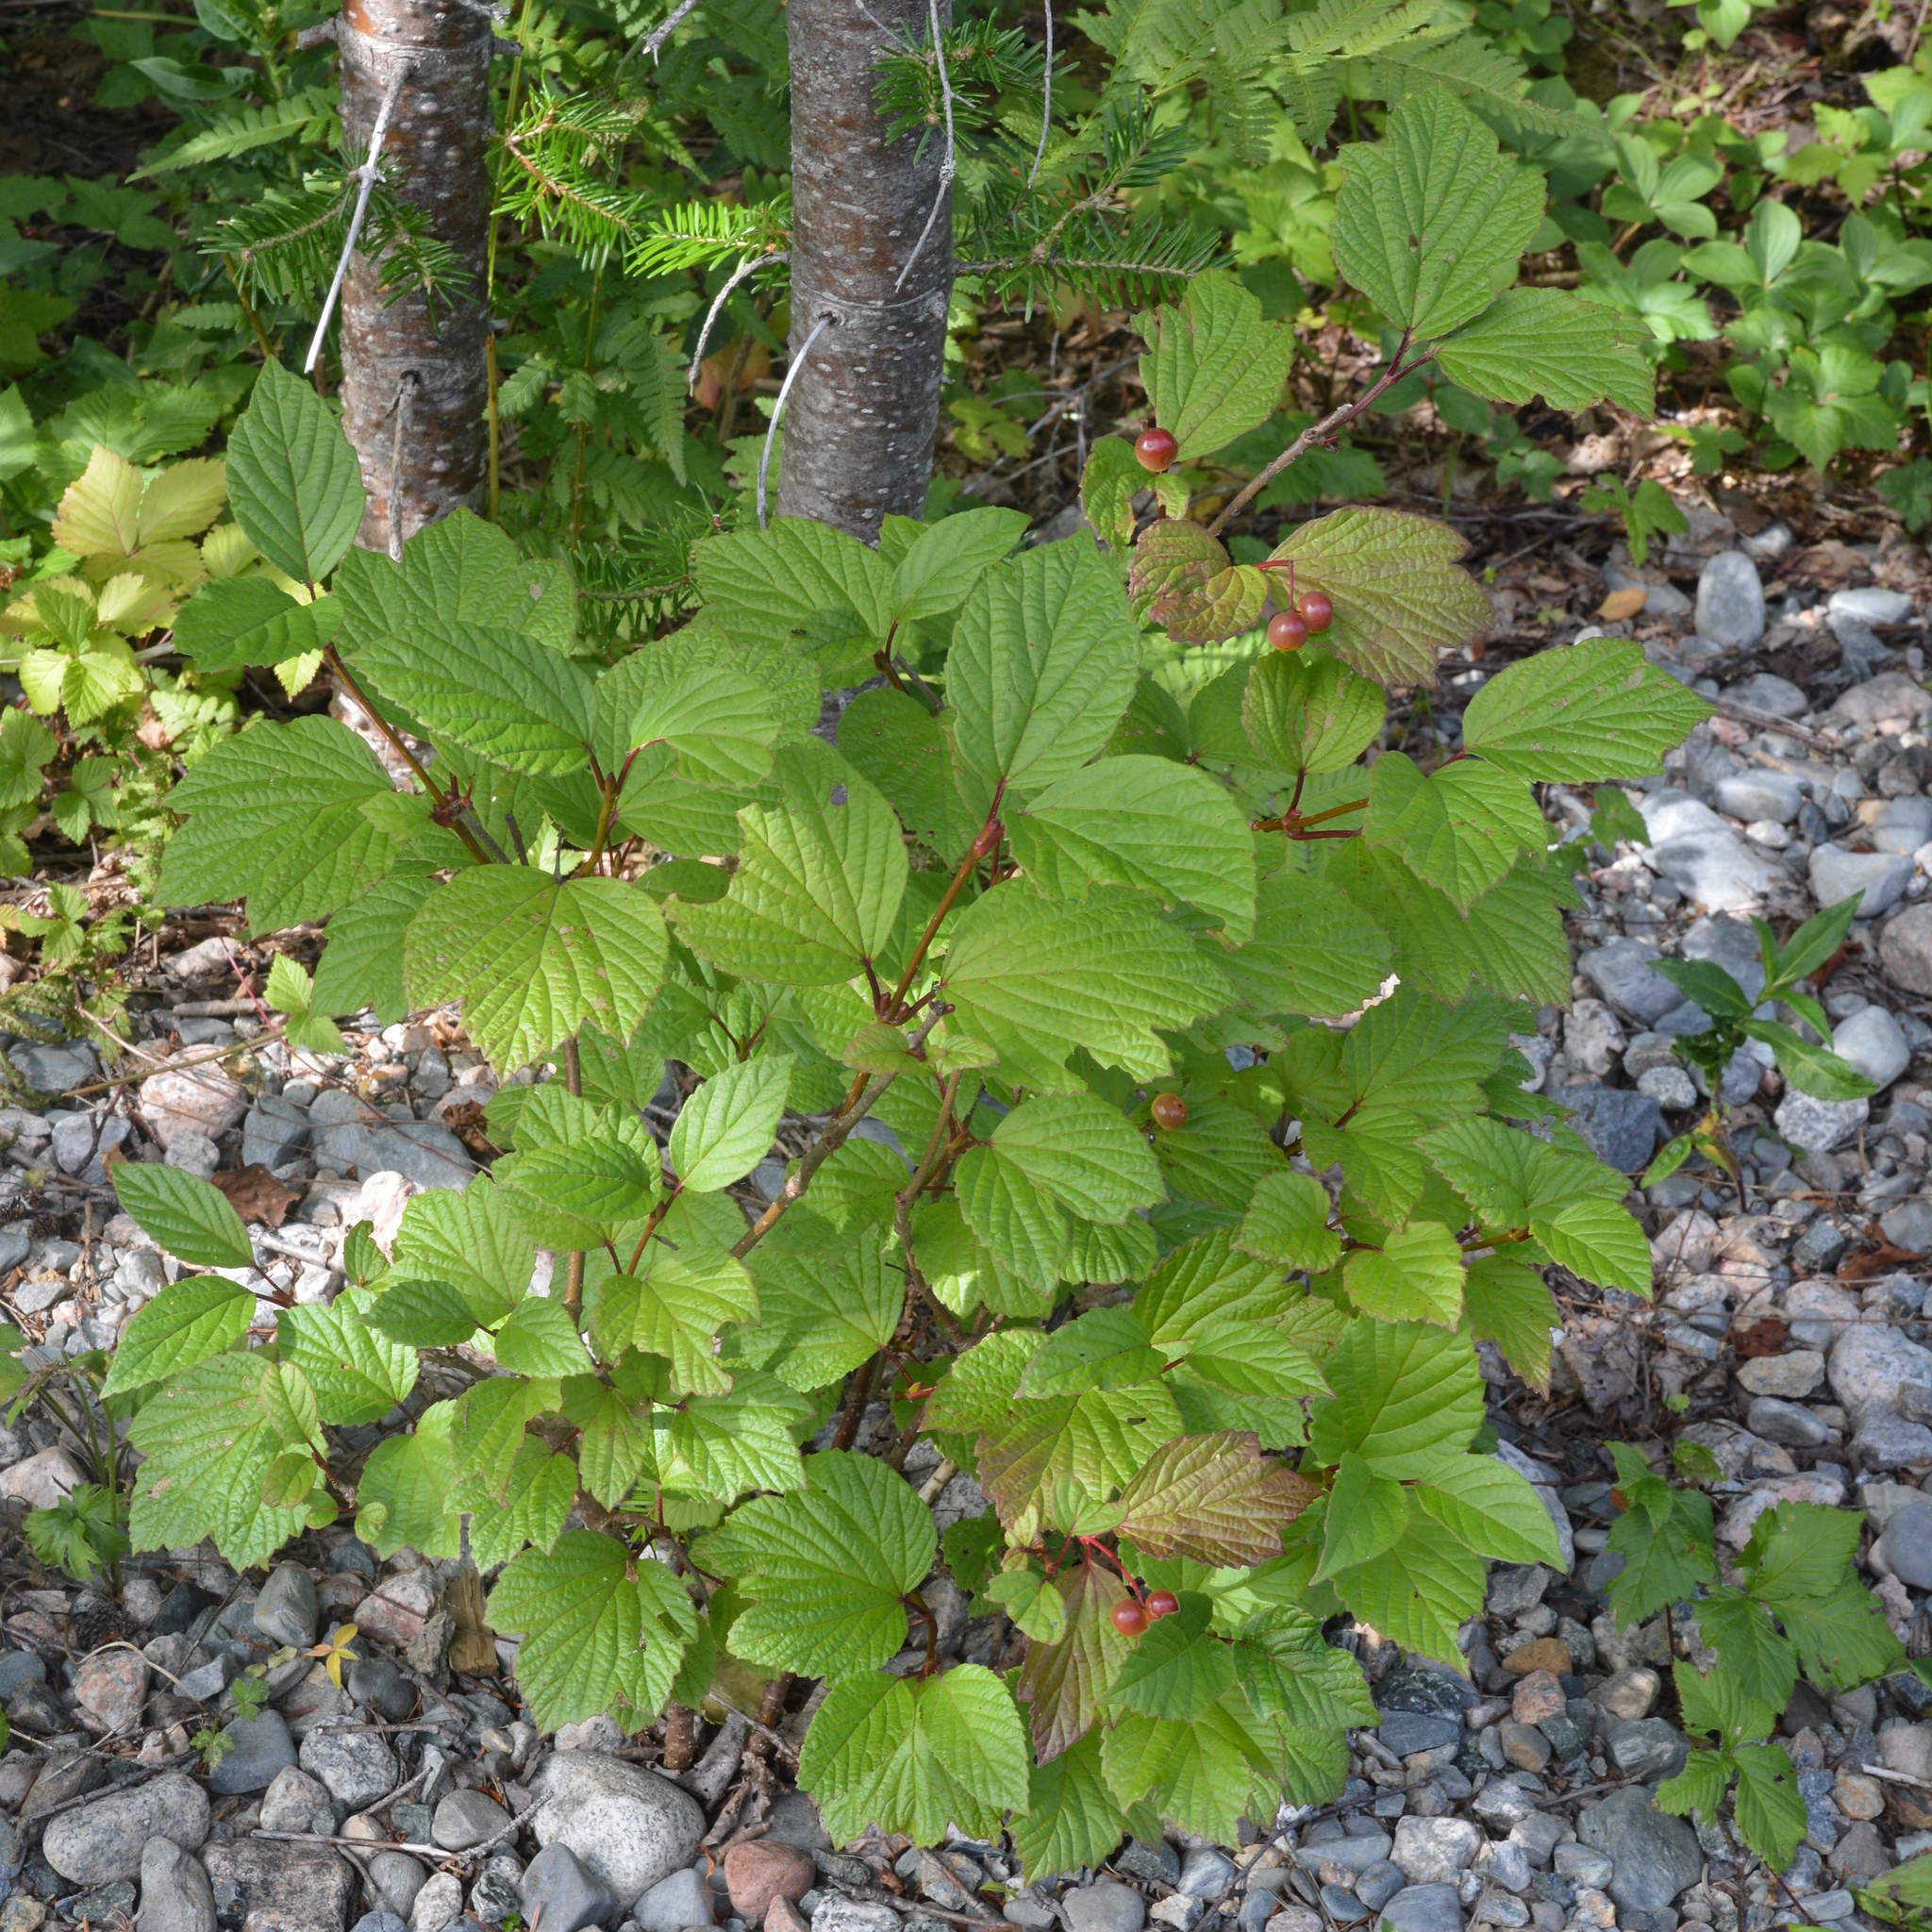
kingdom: Plantae
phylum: Tracheophyta
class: Magnoliopsida
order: Dipsacales
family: Viburnaceae
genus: Viburnum
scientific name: Viburnum edule
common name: Mooseberry
